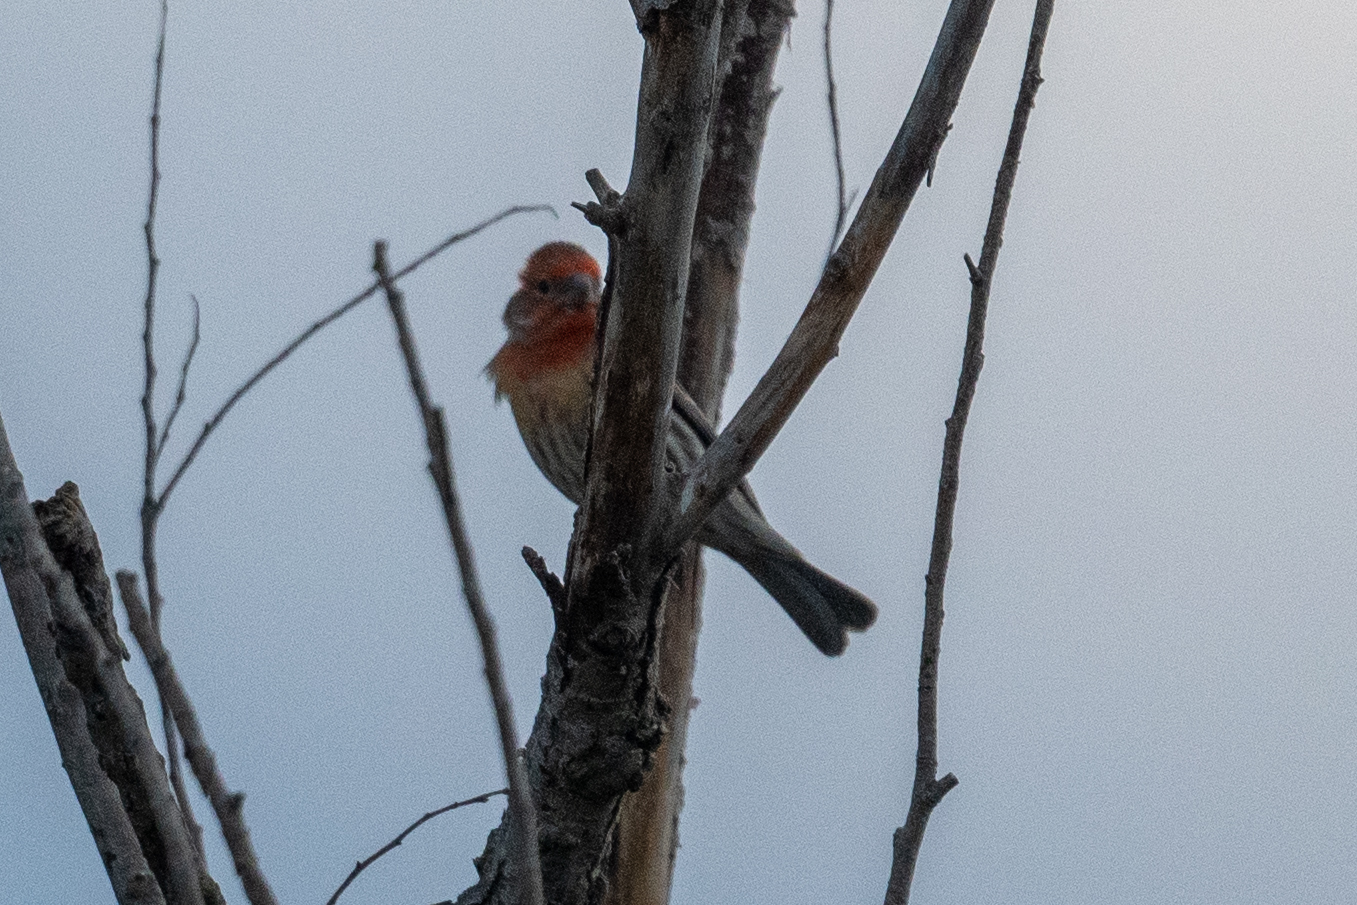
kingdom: Animalia
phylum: Chordata
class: Aves
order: Passeriformes
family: Fringillidae
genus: Haemorhous
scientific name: Haemorhous mexicanus
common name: House finch
